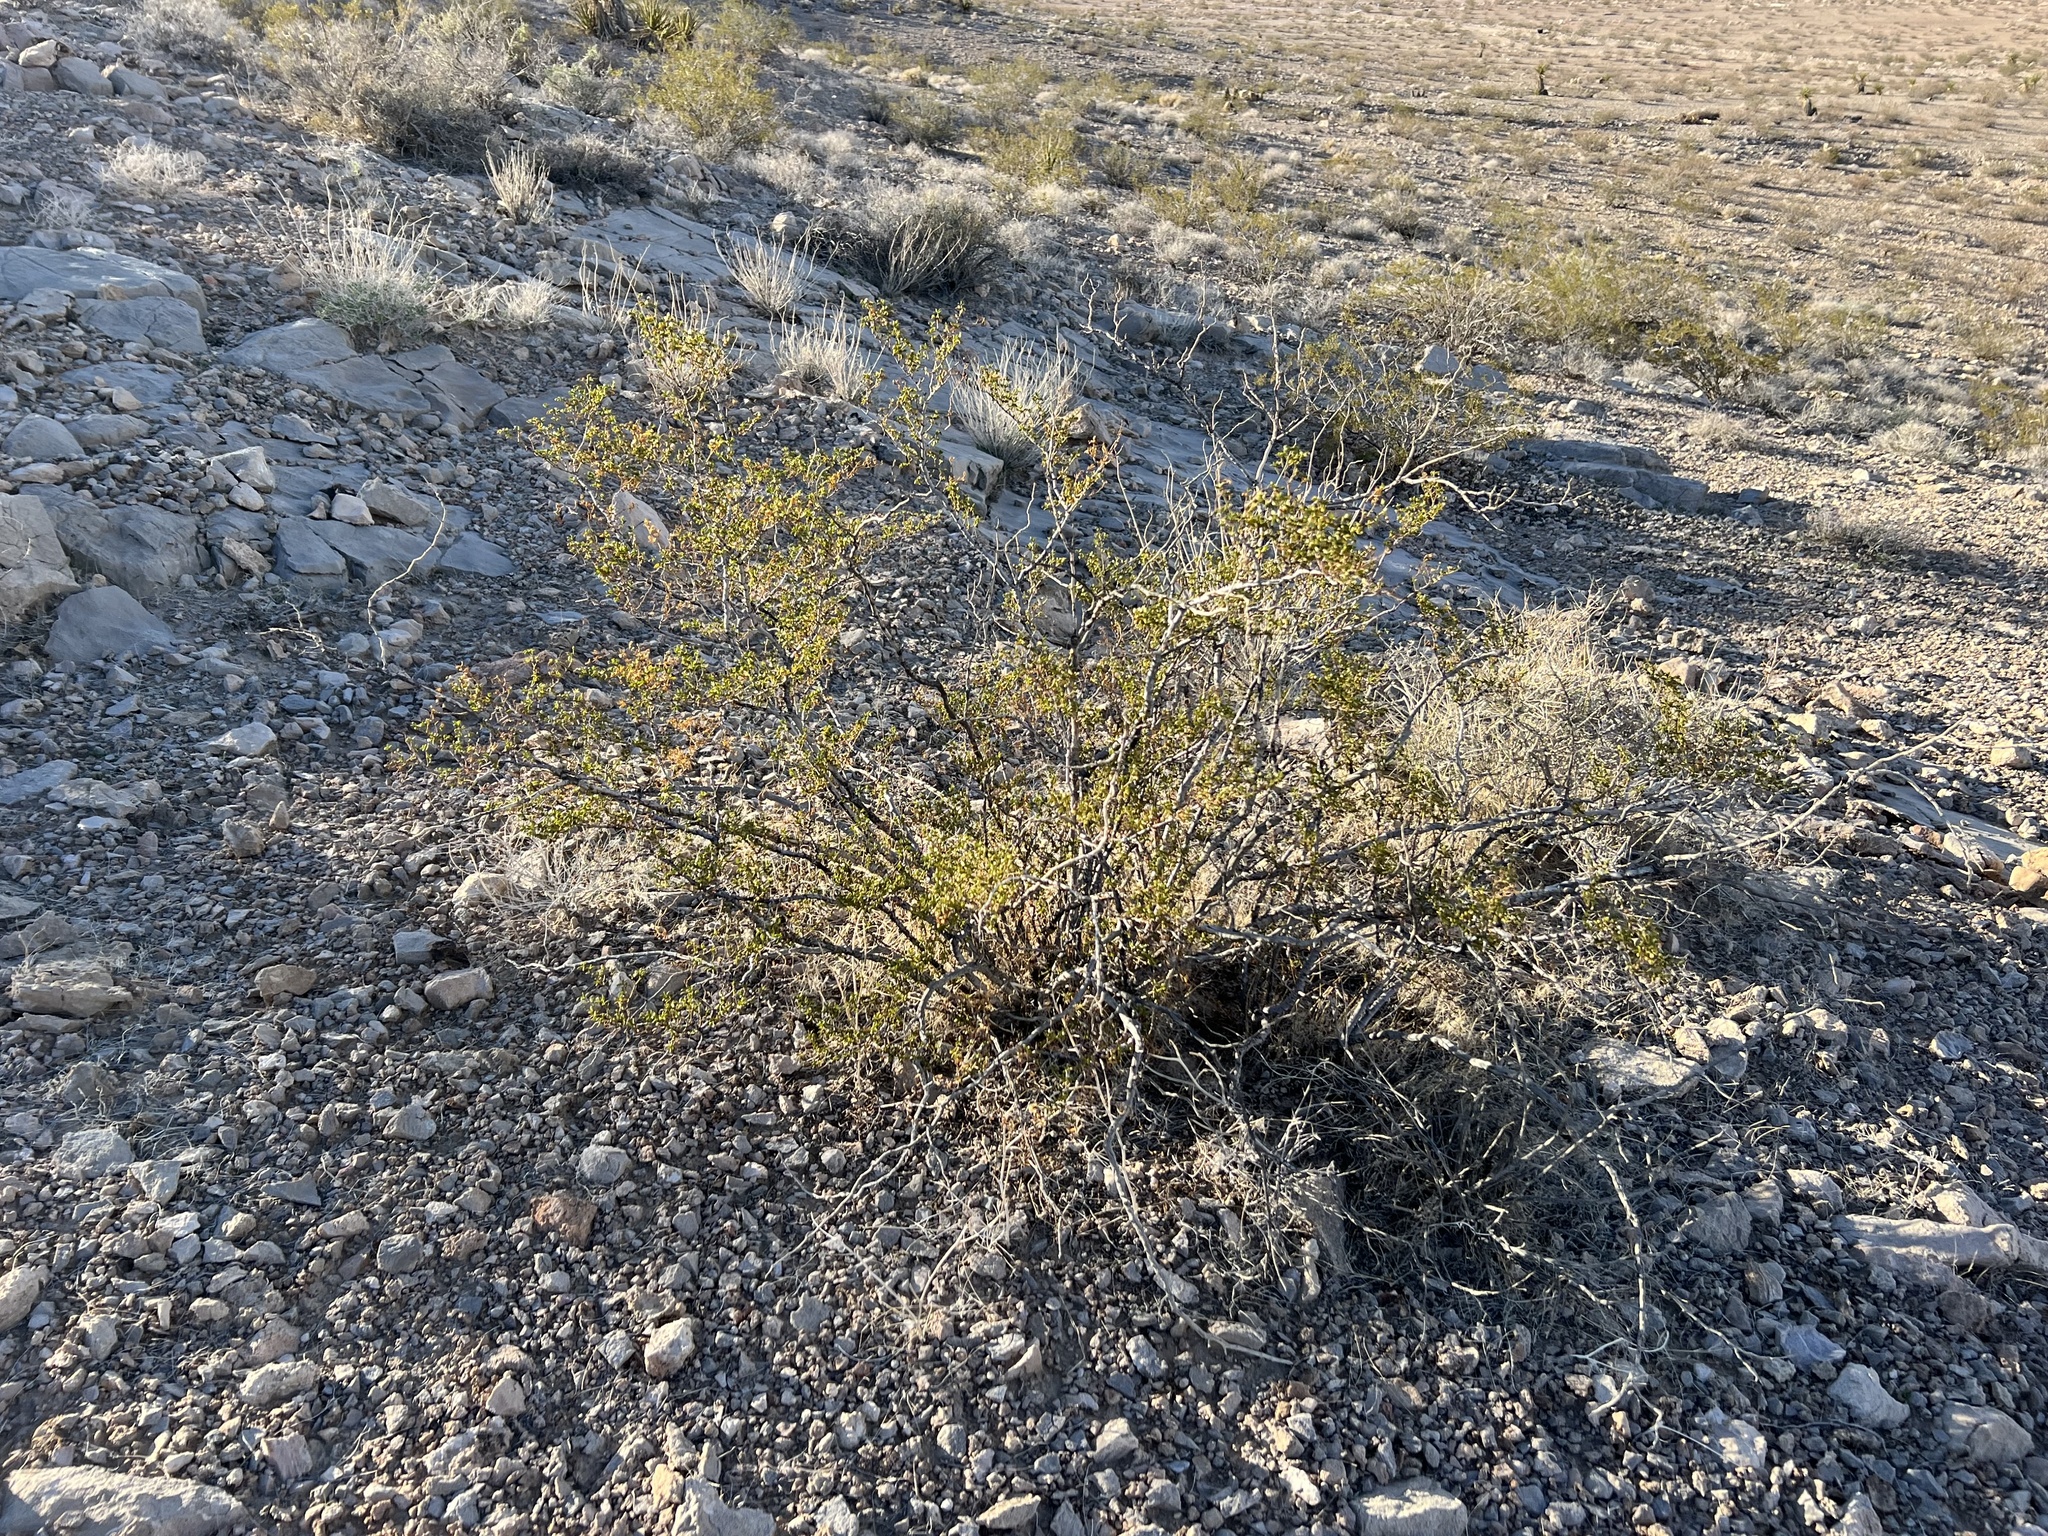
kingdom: Plantae
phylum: Tracheophyta
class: Magnoliopsida
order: Zygophyllales
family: Zygophyllaceae
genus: Larrea
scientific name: Larrea tridentata
